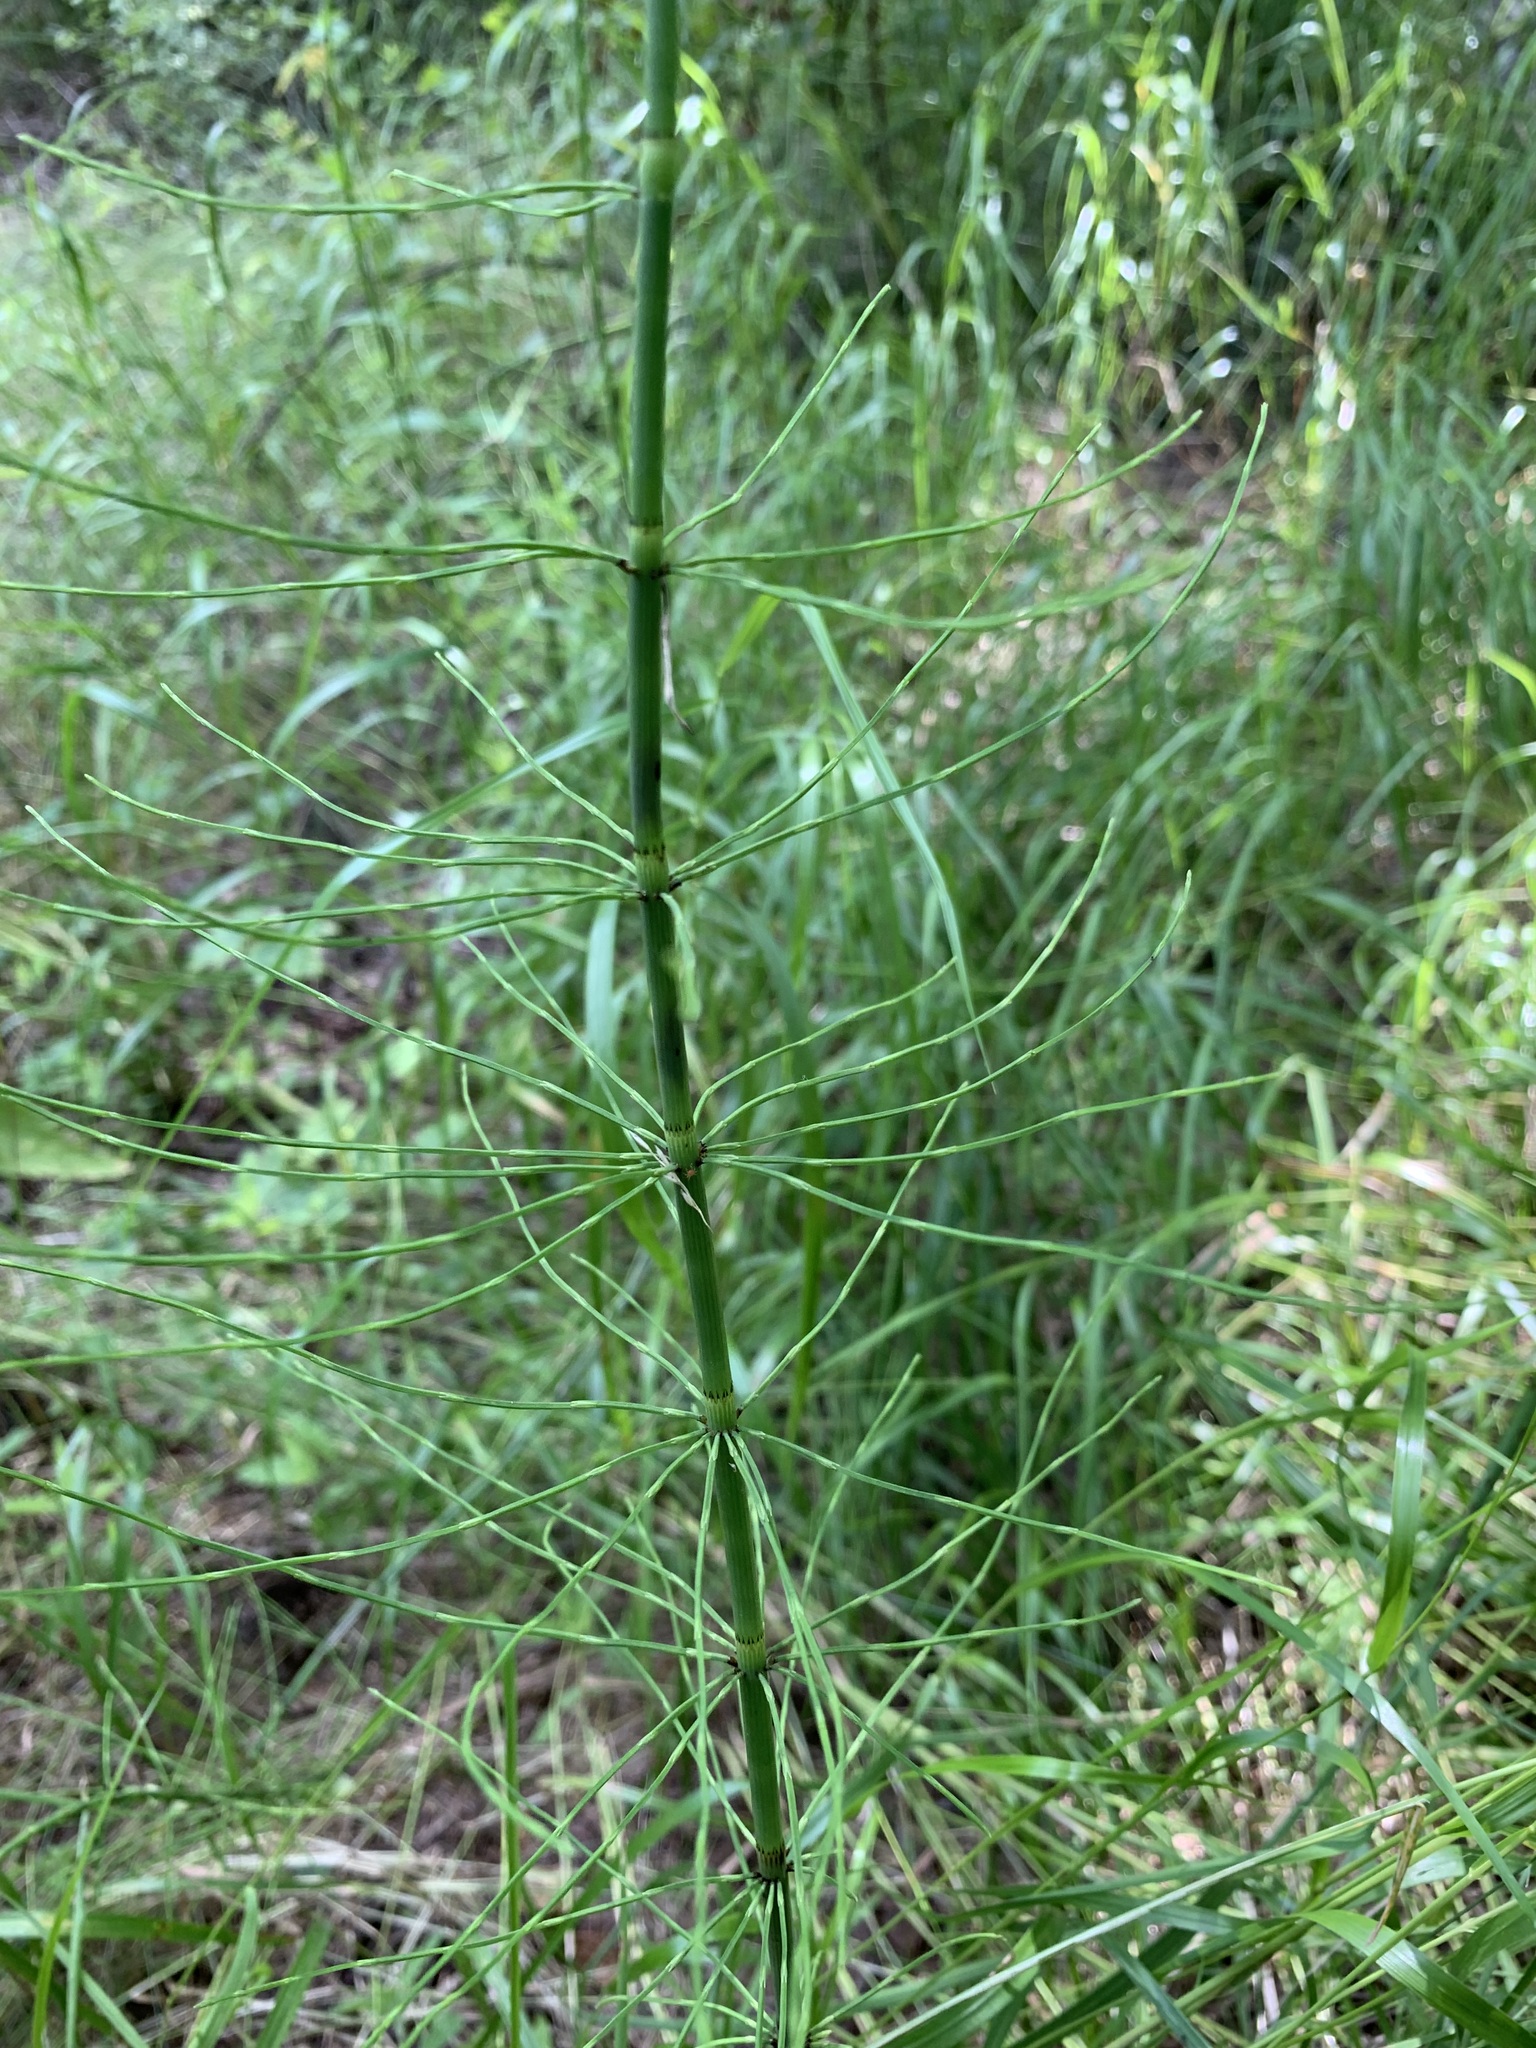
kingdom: Plantae
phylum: Tracheophyta
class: Polypodiopsida
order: Equisetales
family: Equisetaceae
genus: Equisetum
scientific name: Equisetum fluviatile
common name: Water horsetail
